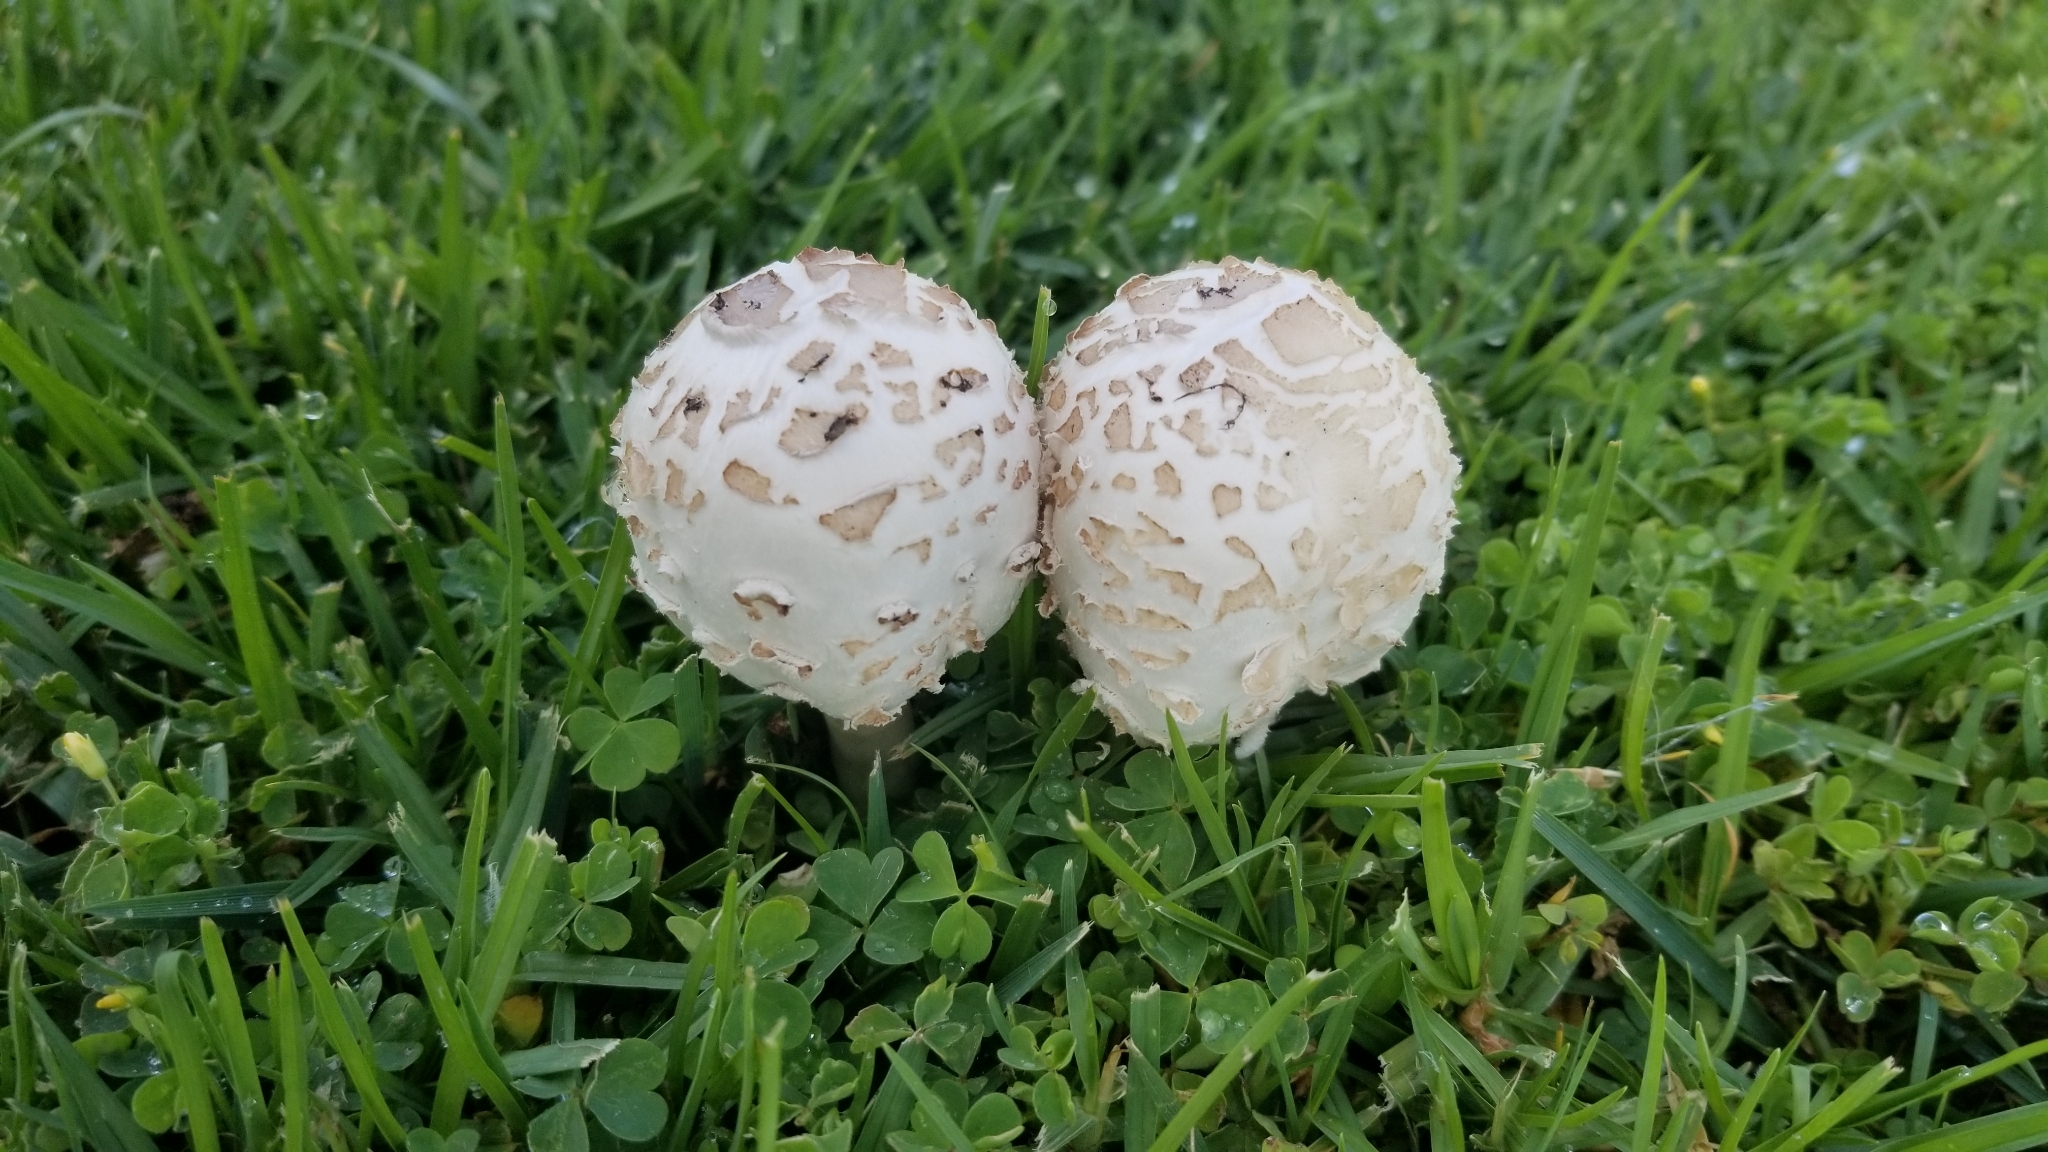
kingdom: Fungi
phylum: Basidiomycota
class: Agaricomycetes
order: Agaricales
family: Agaricaceae
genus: Chlorophyllum
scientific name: Chlorophyllum molybdites
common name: False parasol
